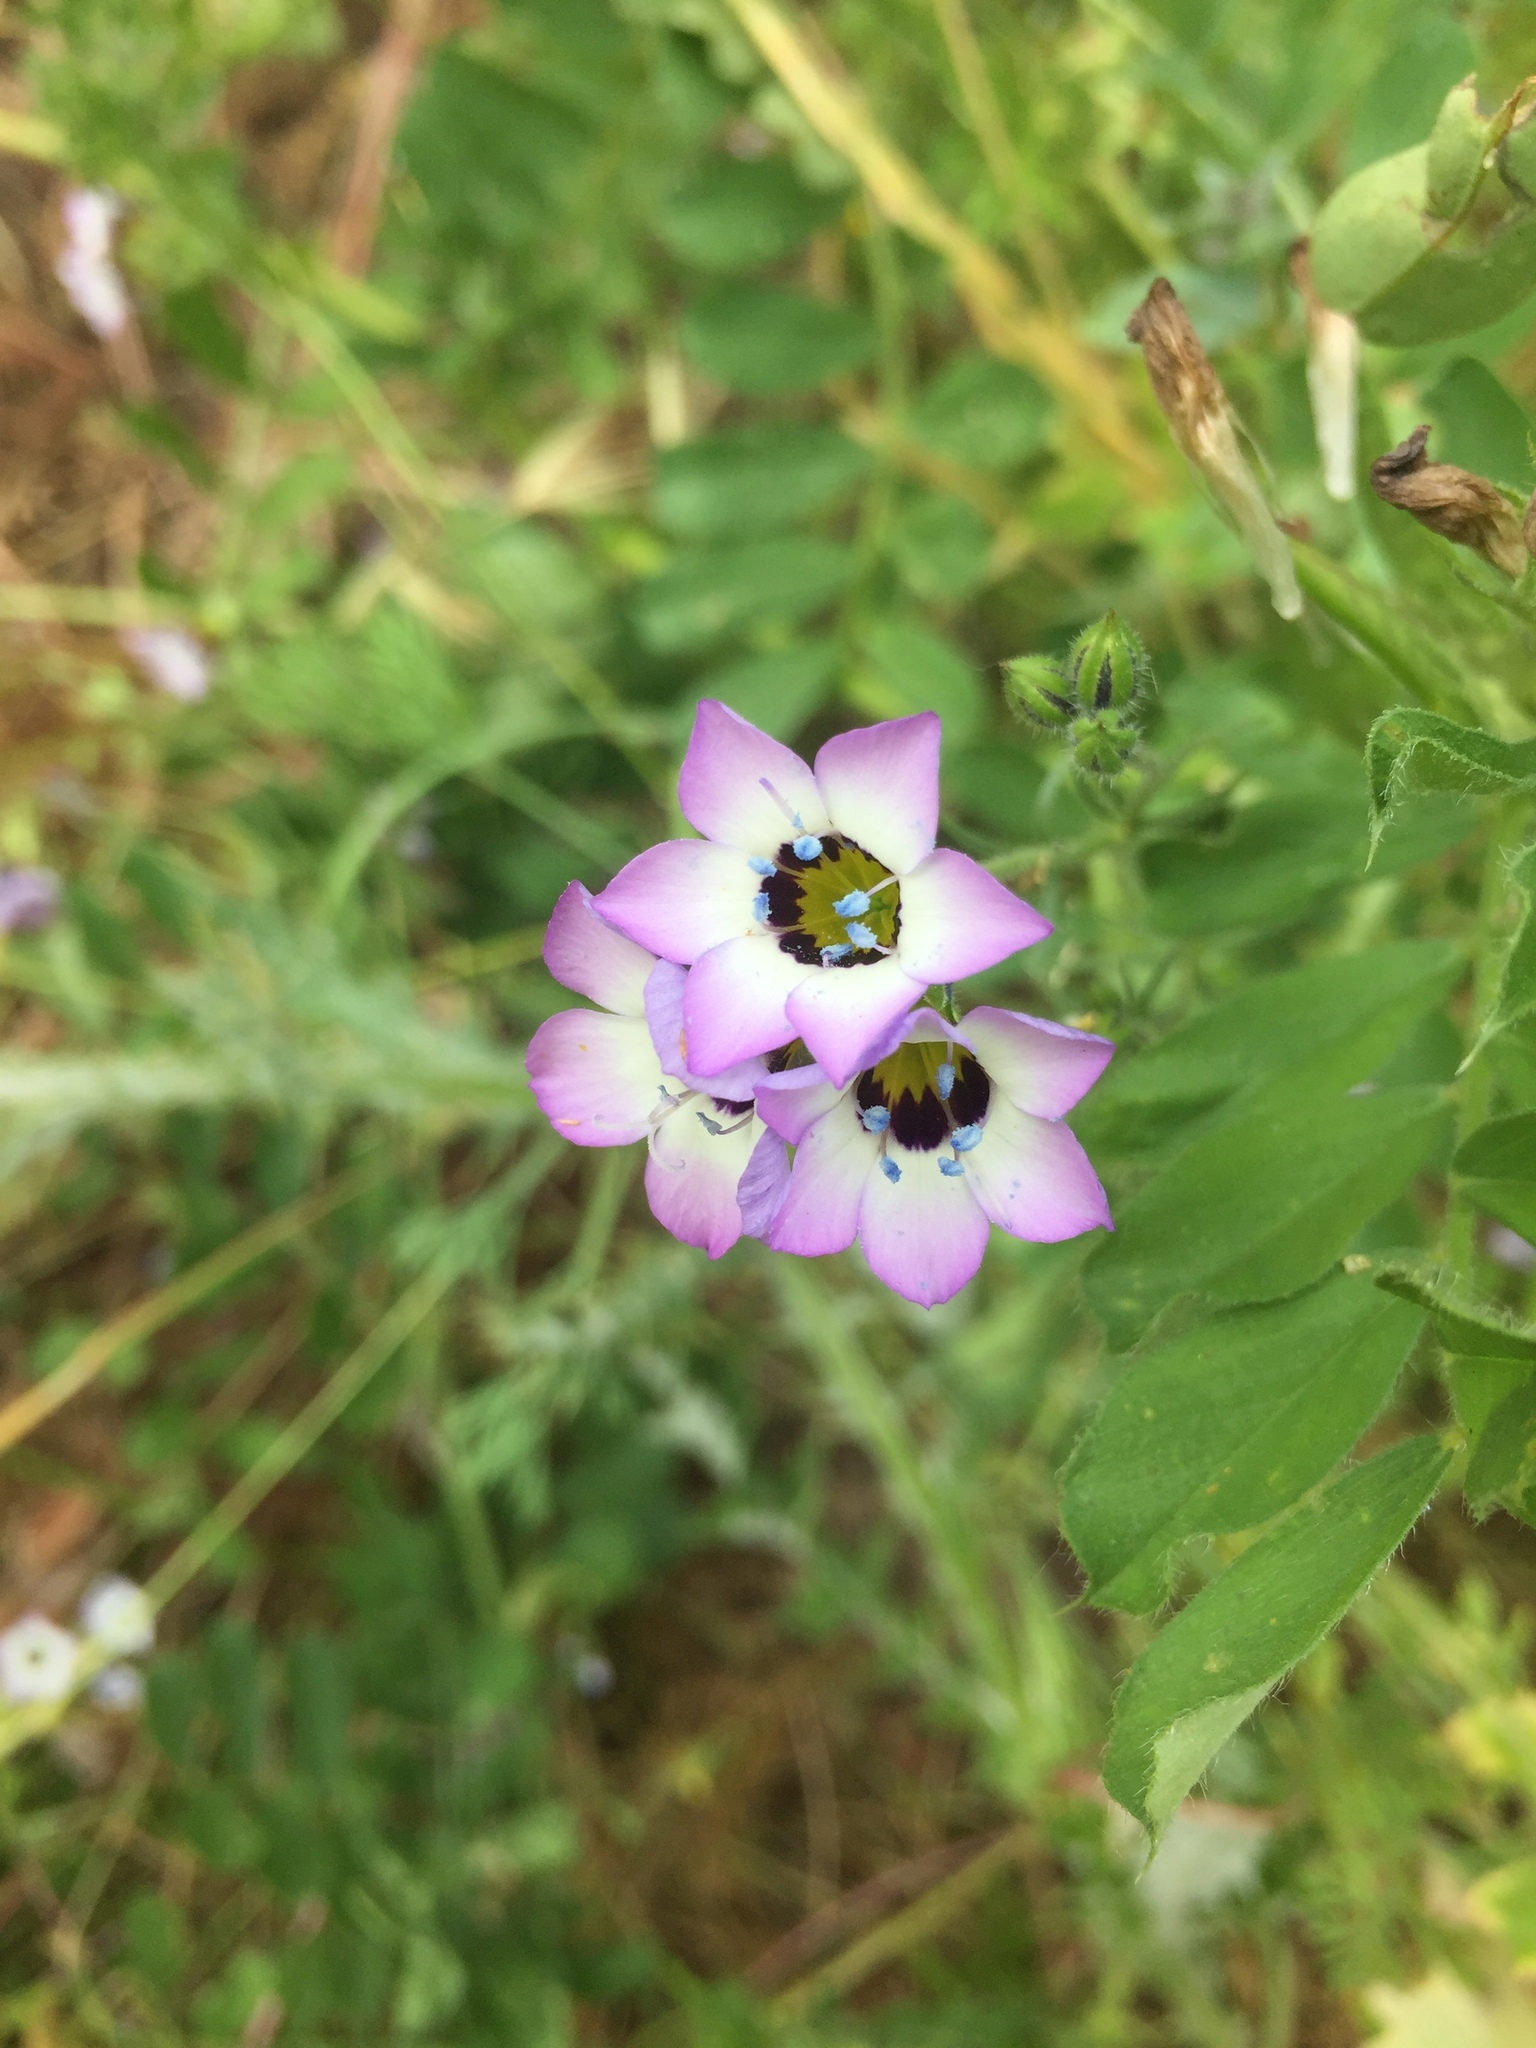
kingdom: Plantae
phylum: Tracheophyta
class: Magnoliopsida
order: Ericales
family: Polemoniaceae
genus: Gilia
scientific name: Gilia tricolor
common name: Bird's-eyes
